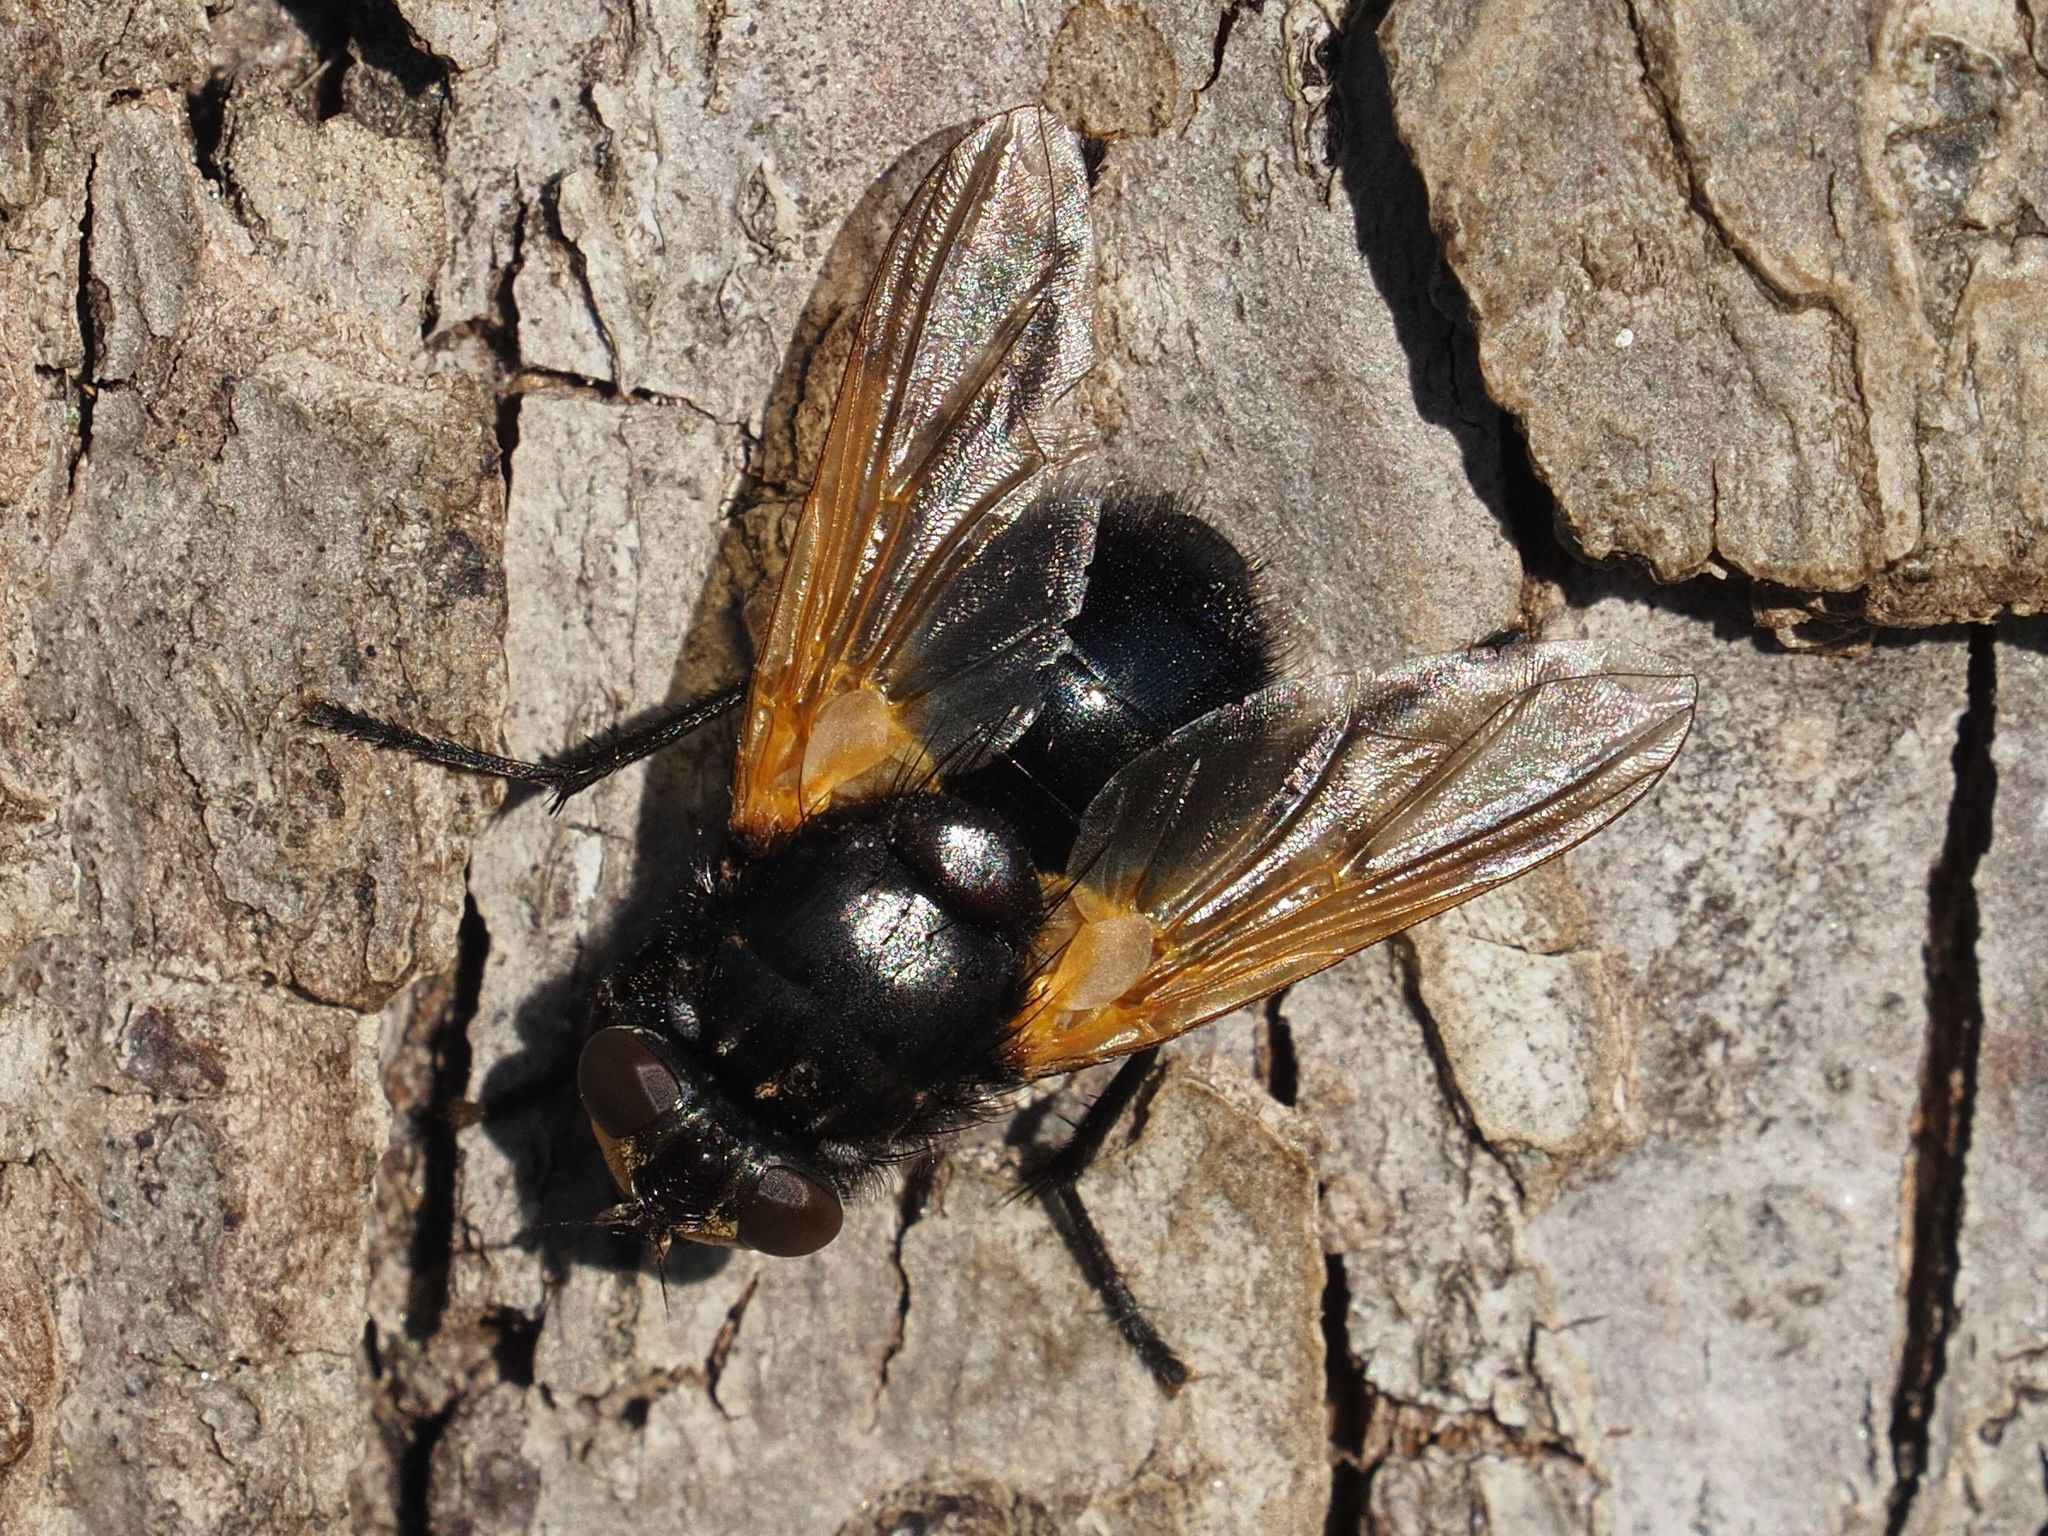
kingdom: Animalia
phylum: Arthropoda
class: Insecta
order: Diptera
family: Muscidae
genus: Mesembrina
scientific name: Mesembrina meridiana
